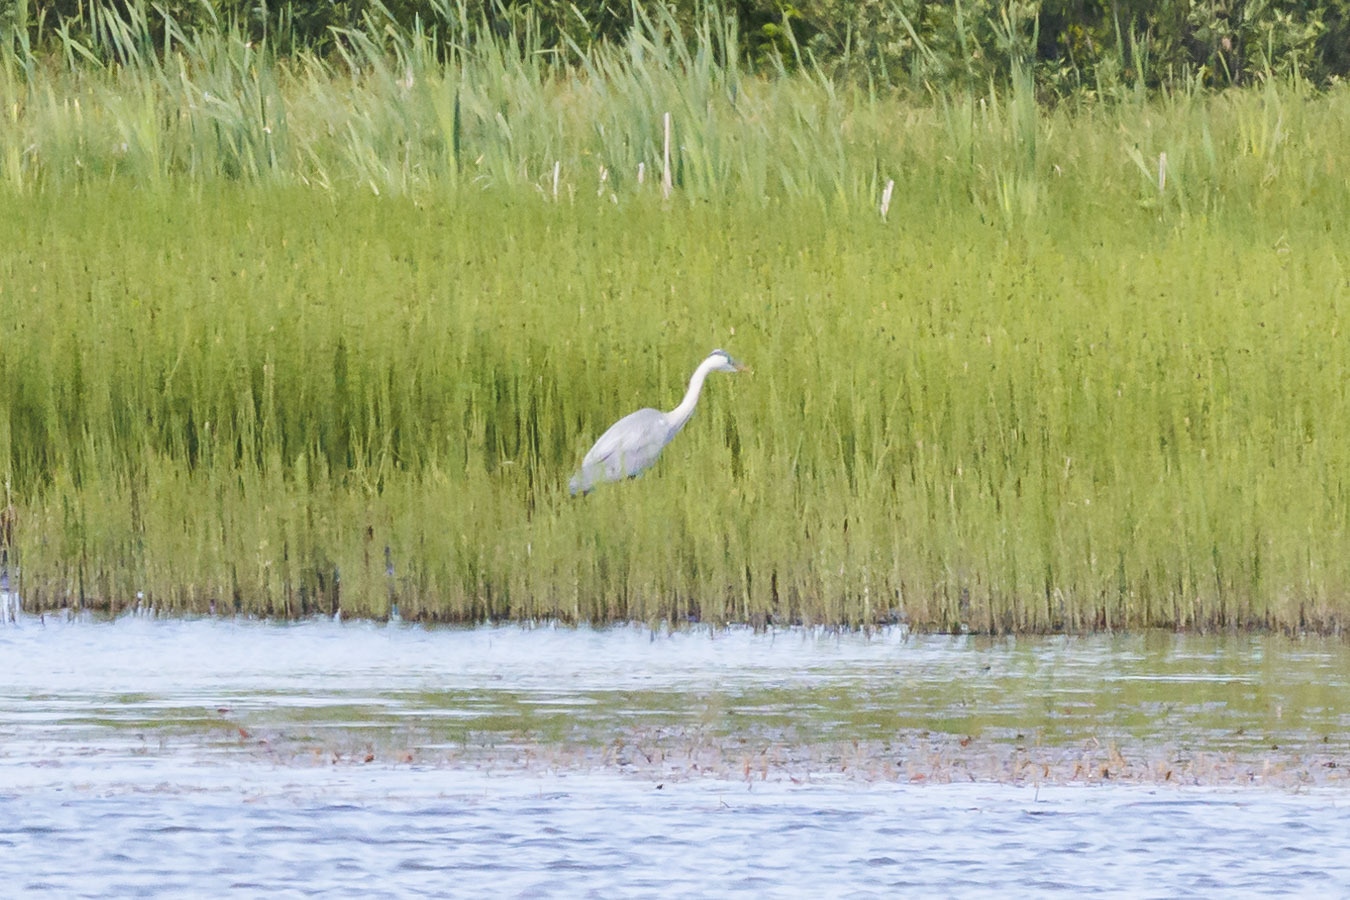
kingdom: Animalia
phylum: Chordata
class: Aves
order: Pelecaniformes
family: Ardeidae
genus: Ardea
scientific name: Ardea cinerea
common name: Grey heron
